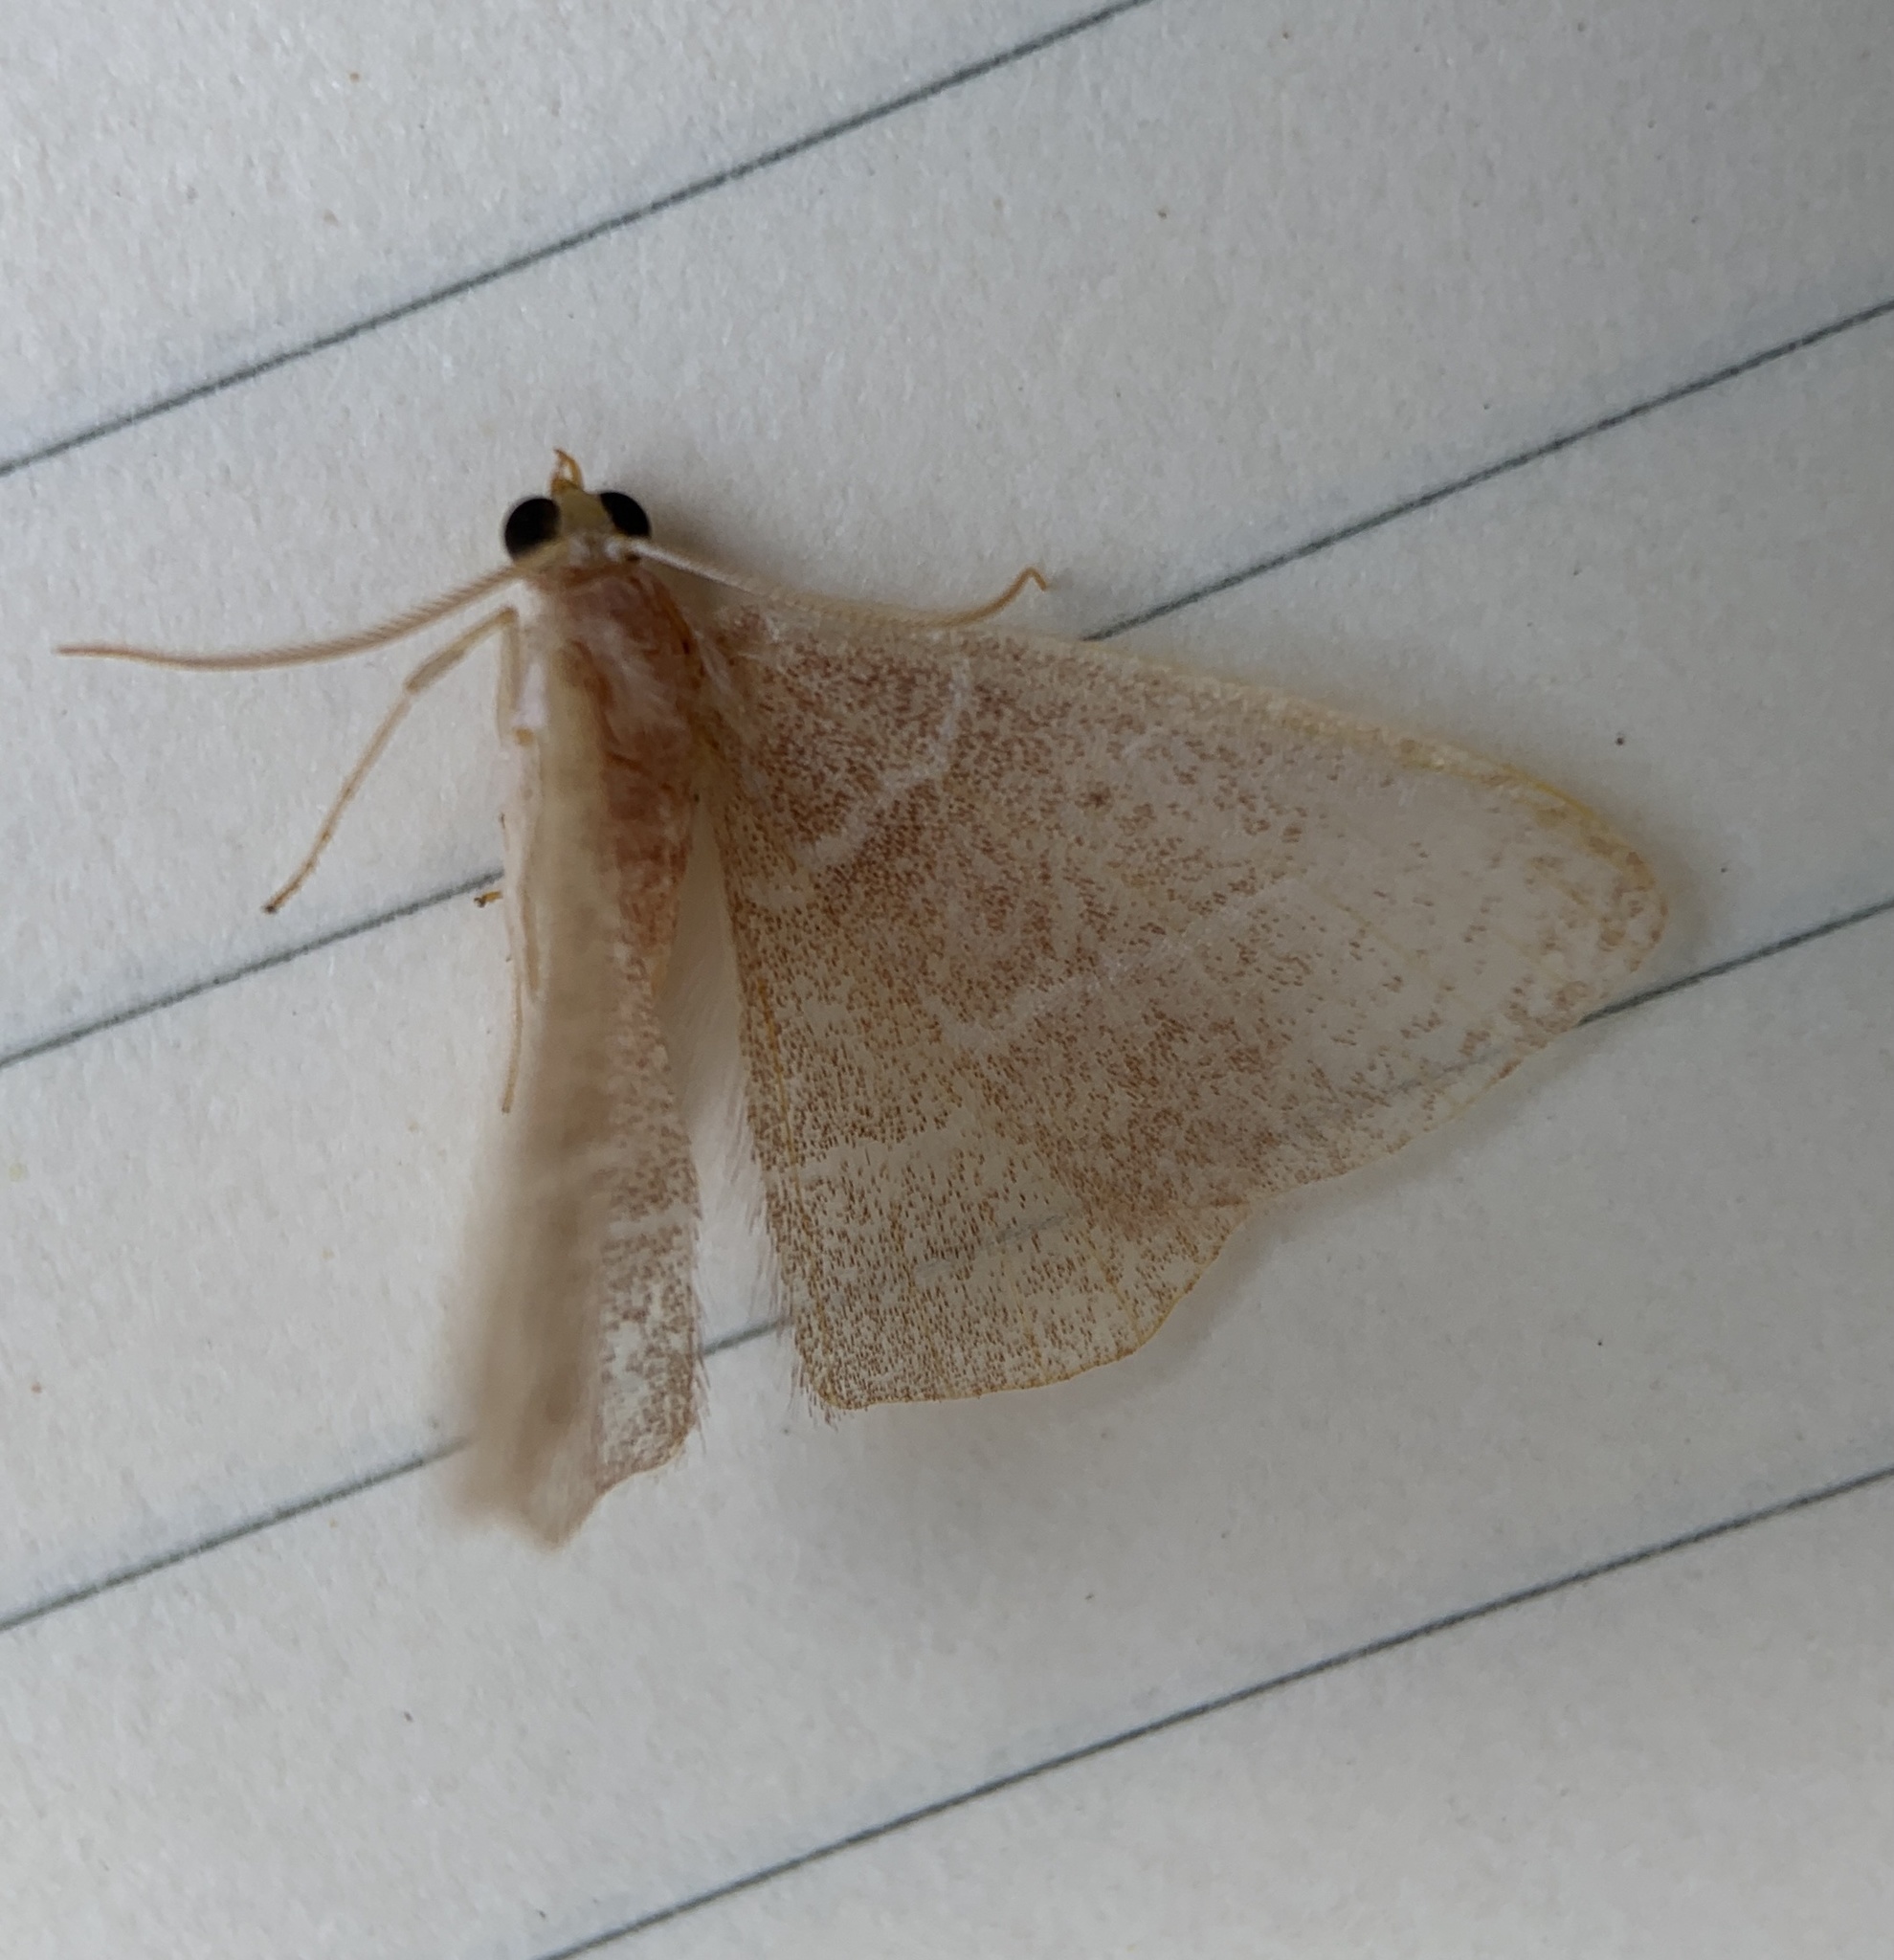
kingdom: Animalia
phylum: Arthropoda
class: Insecta
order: Lepidoptera
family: Geometridae
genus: Nemoria
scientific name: Nemoria bistriaria
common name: Red-fringed emerald
